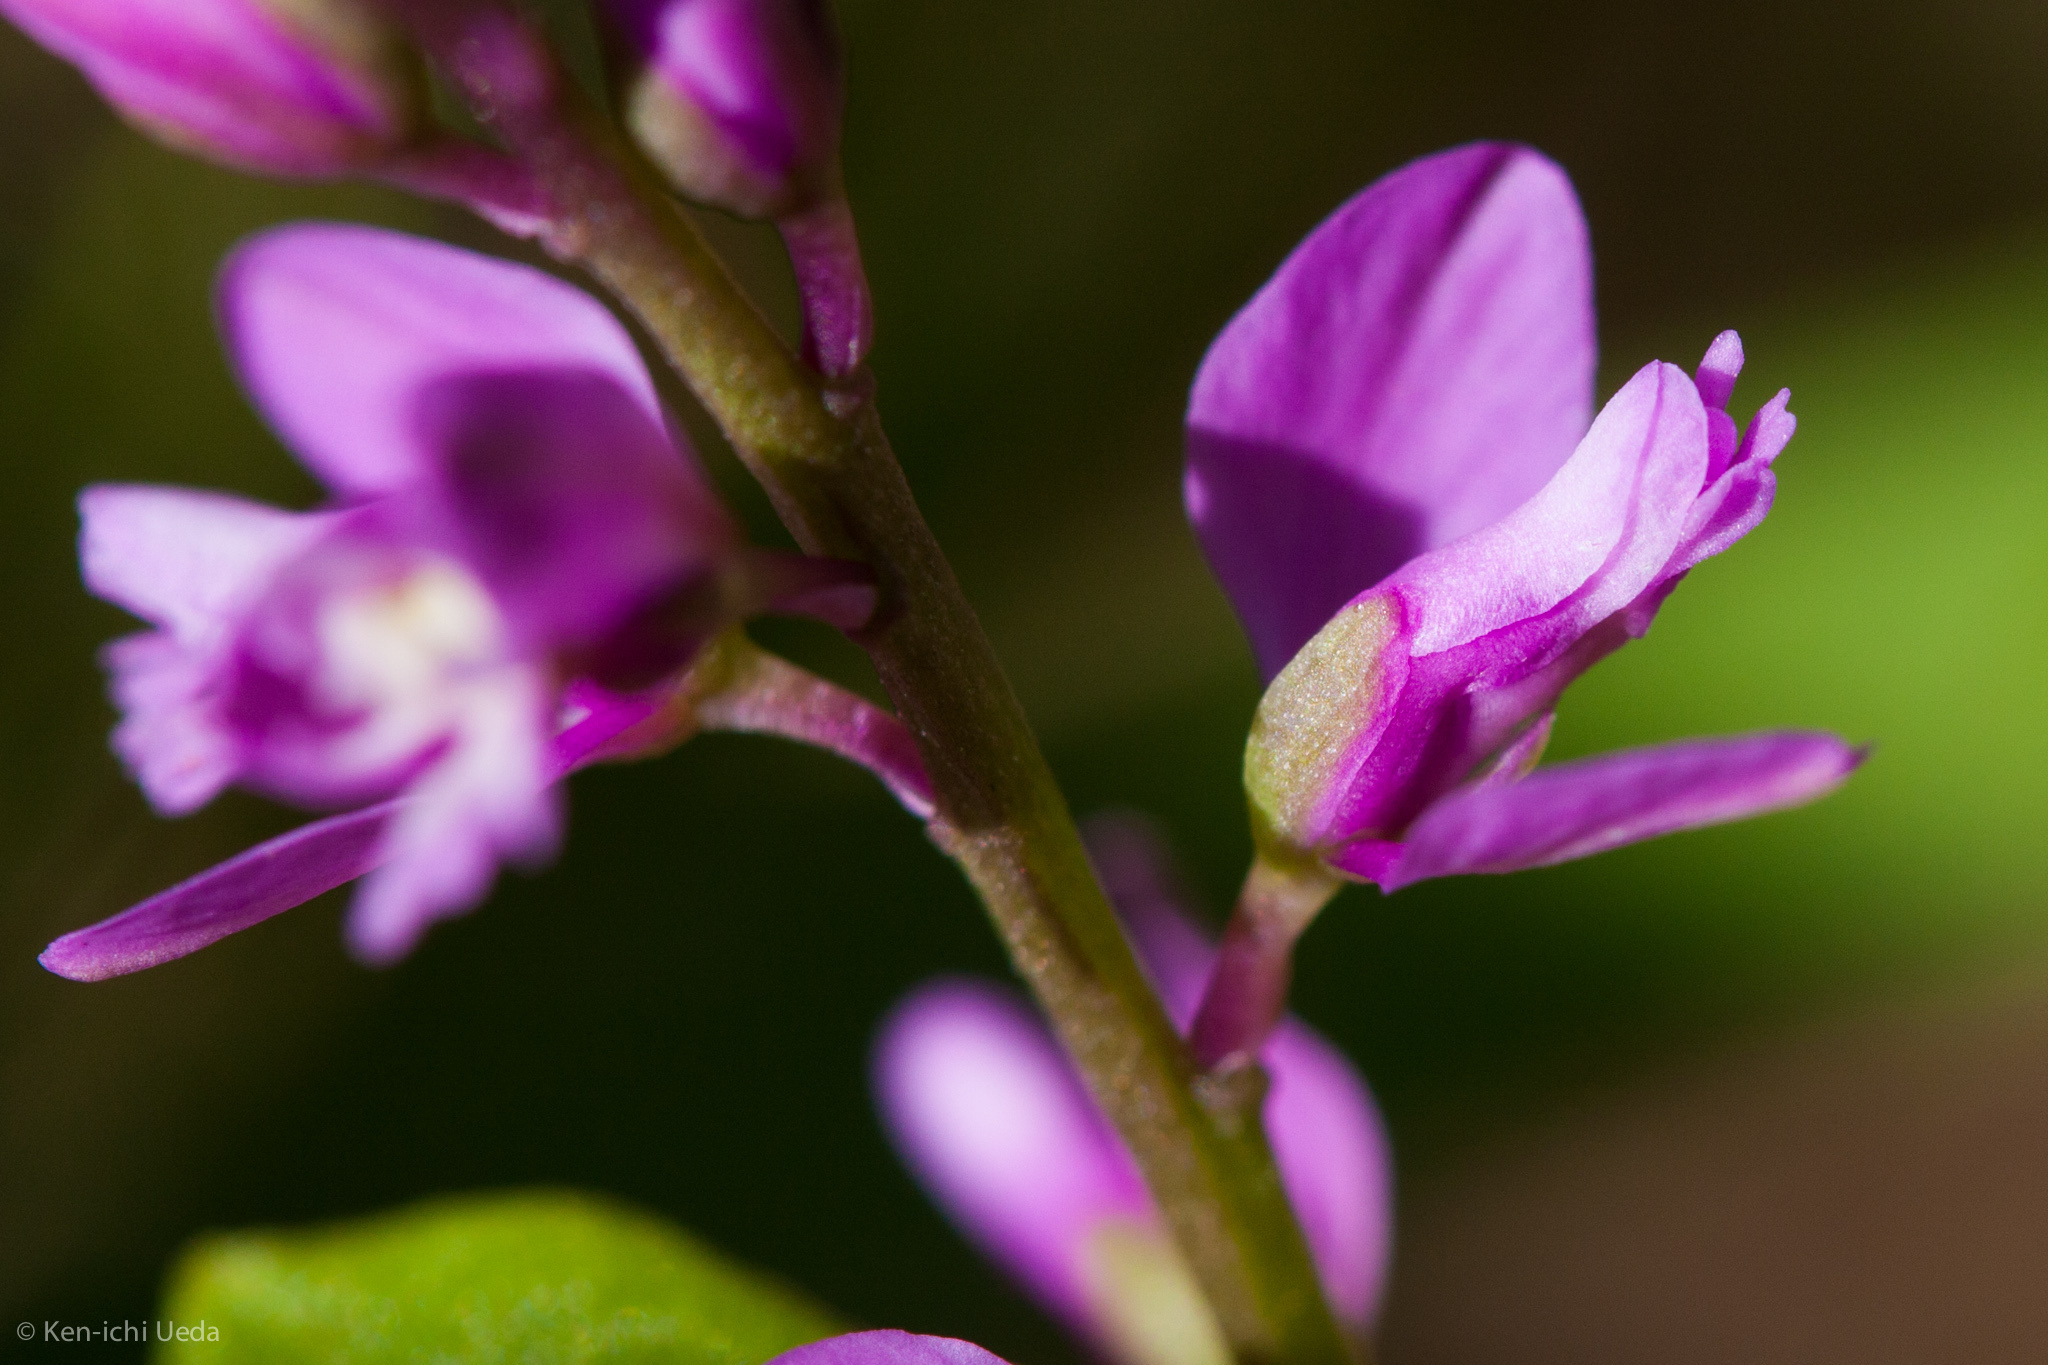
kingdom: Plantae
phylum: Tracheophyta
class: Magnoliopsida
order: Fabales
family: Polygalaceae
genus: Polygala
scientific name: Polygala polygama
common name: Bitter milkwort
